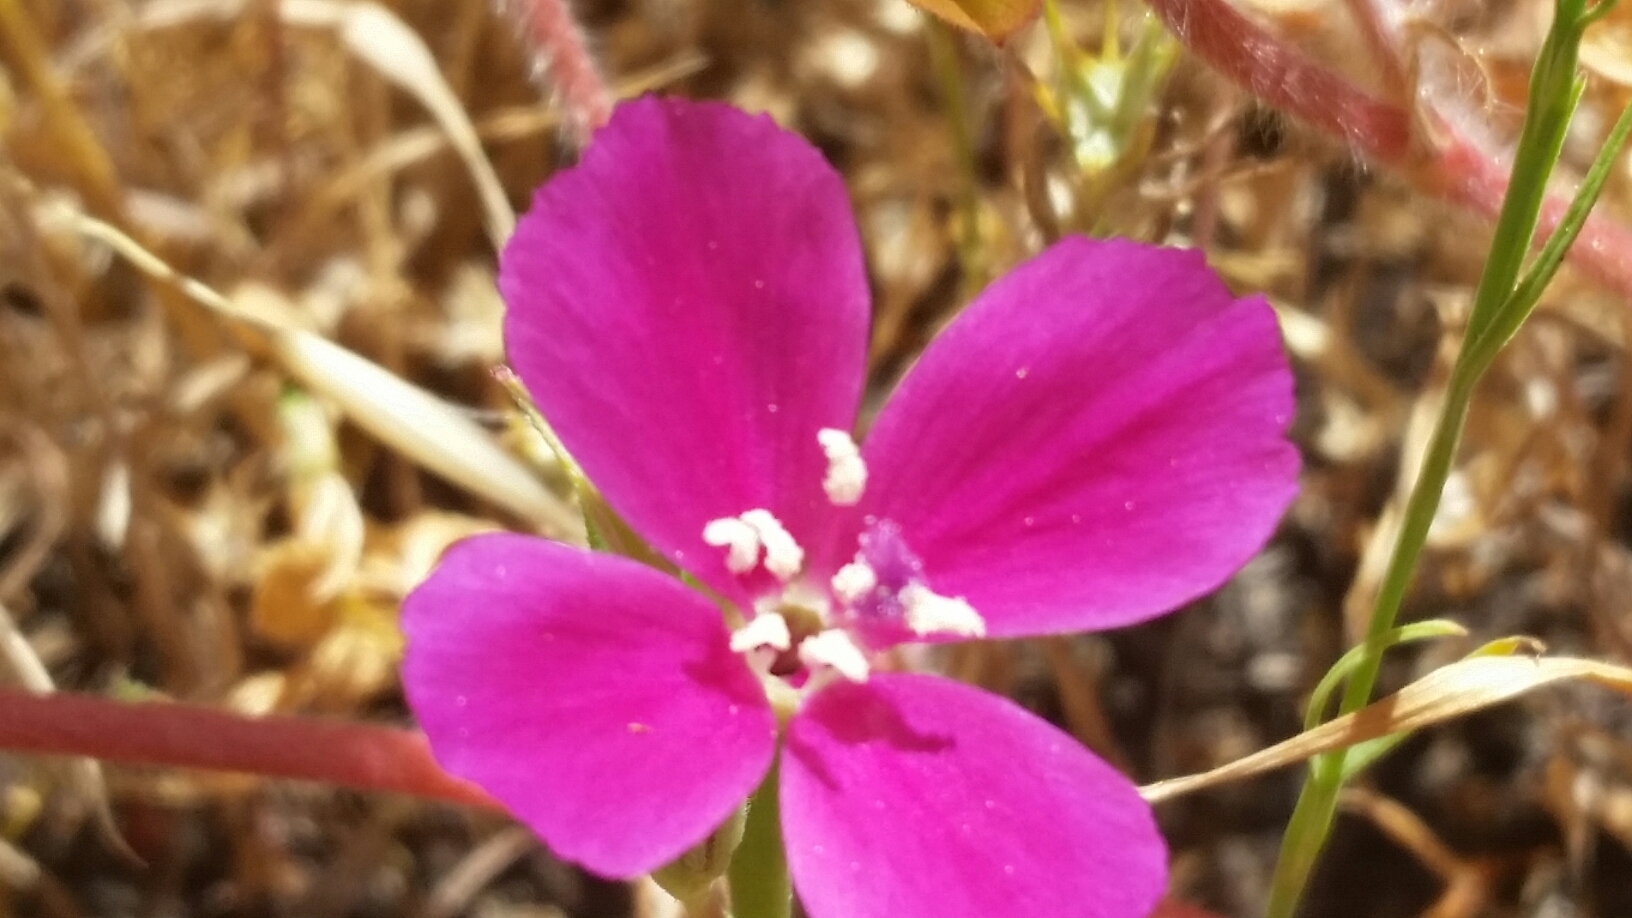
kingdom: Plantae
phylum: Tracheophyta
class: Magnoliopsida
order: Myrtales
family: Onagraceae
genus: Clarkia
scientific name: Clarkia purpurea
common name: Purple clarkia
